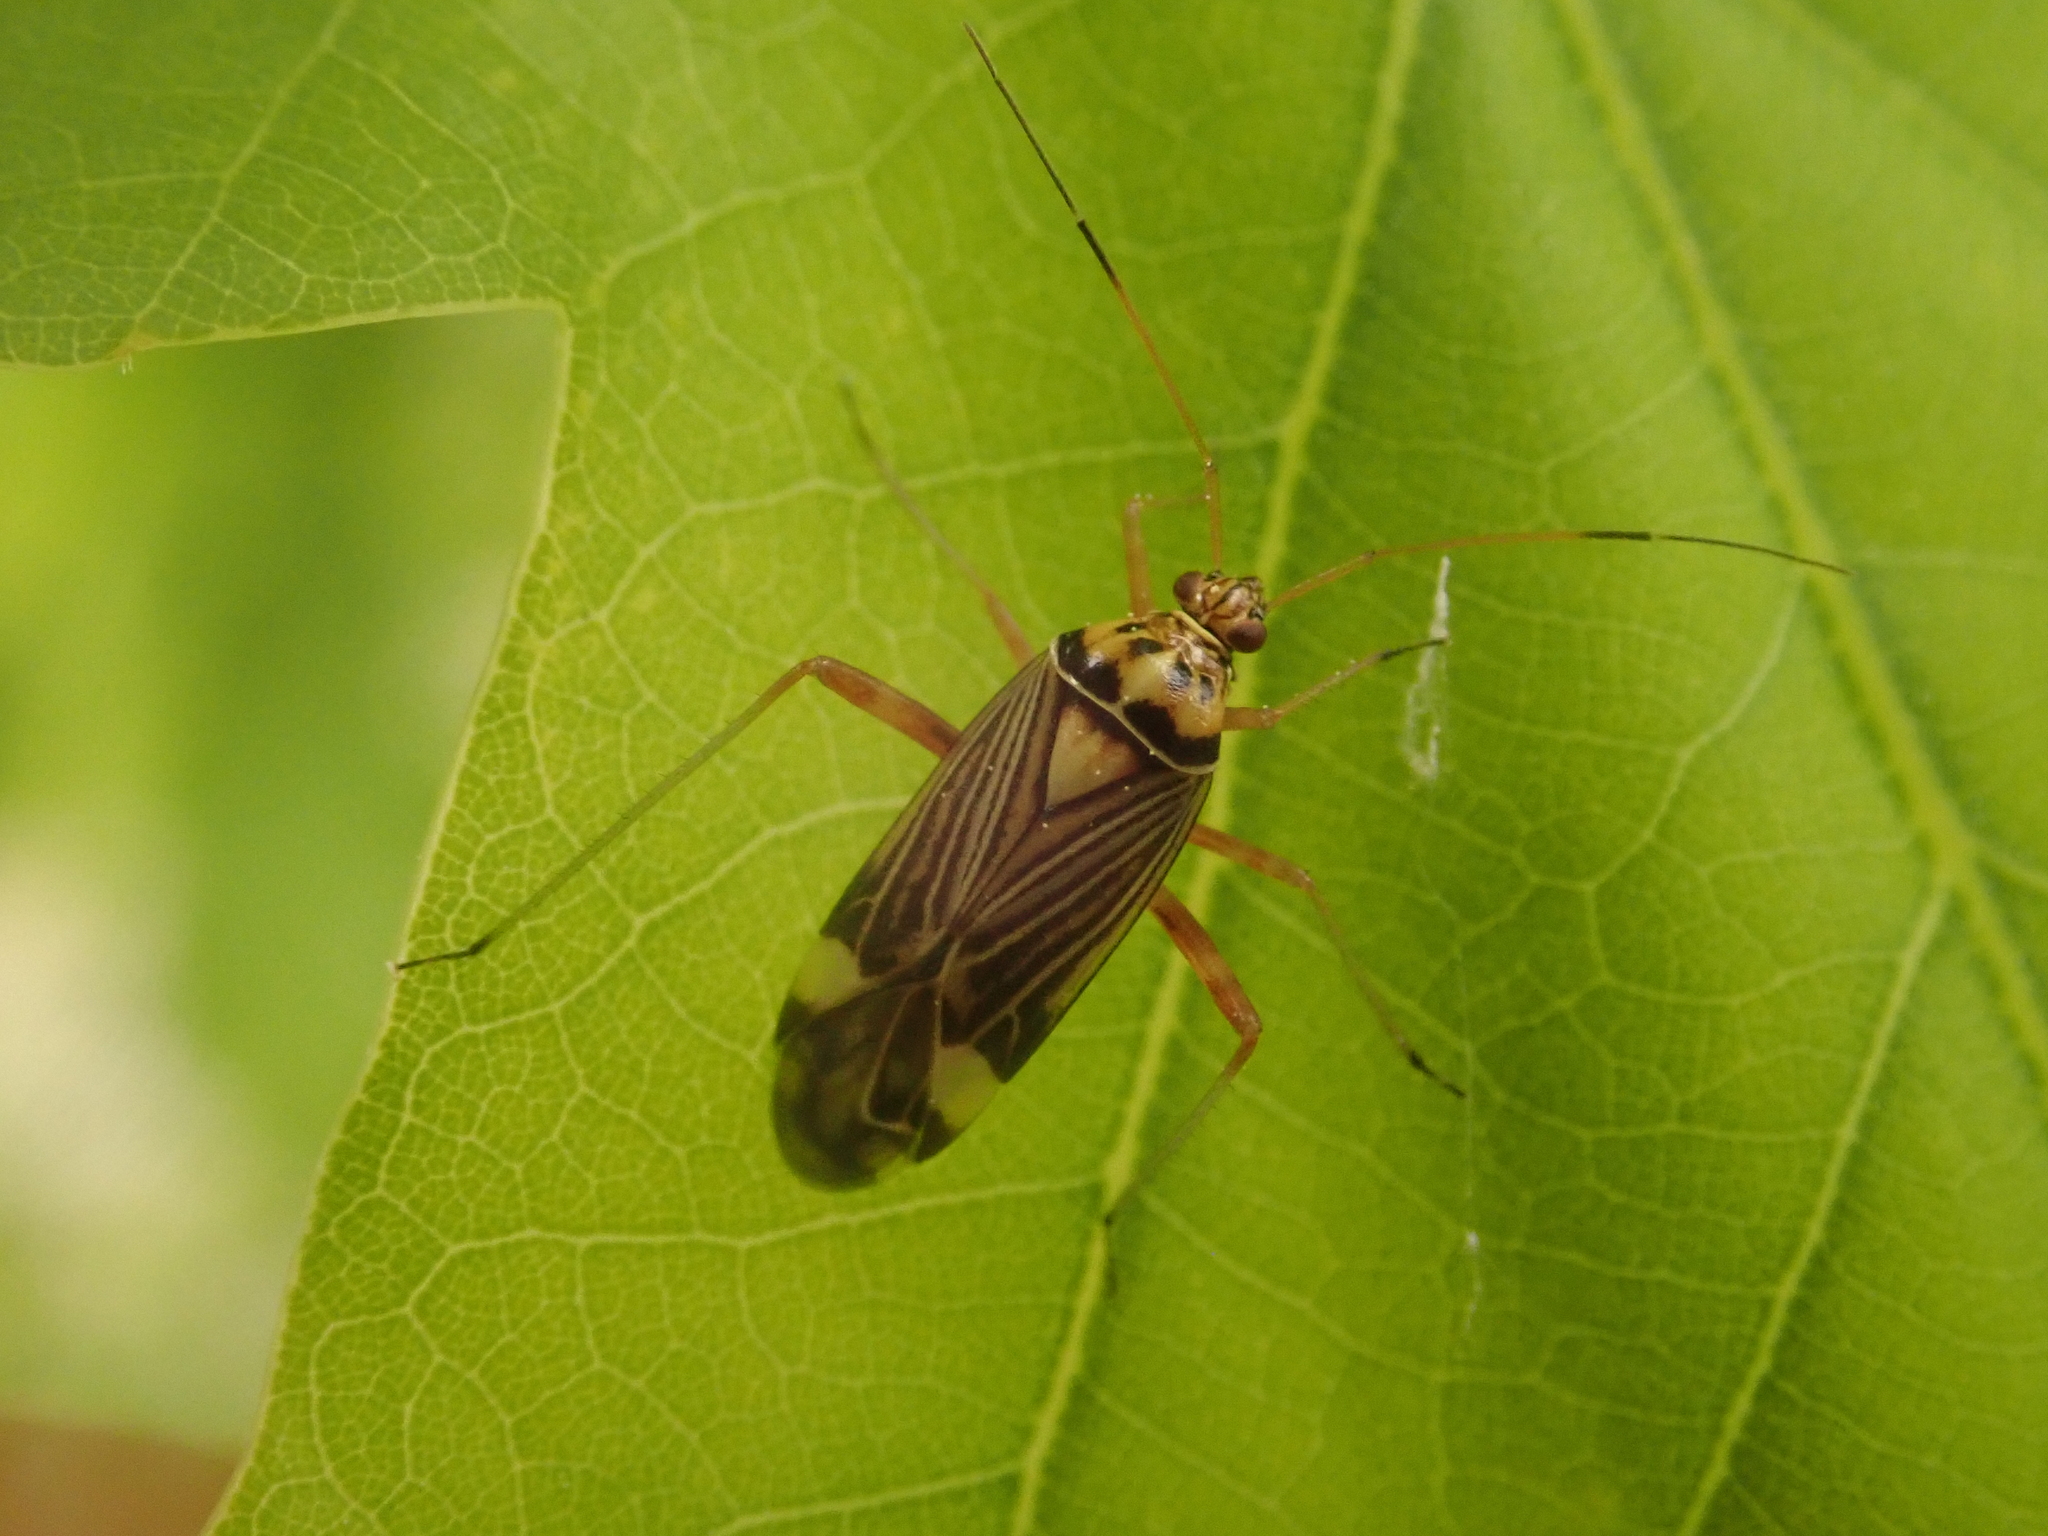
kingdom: Animalia
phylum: Arthropoda
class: Insecta
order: Hemiptera
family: Miridae
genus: Rhabdomiris
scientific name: Rhabdomiris striatellus
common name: Plant bug
